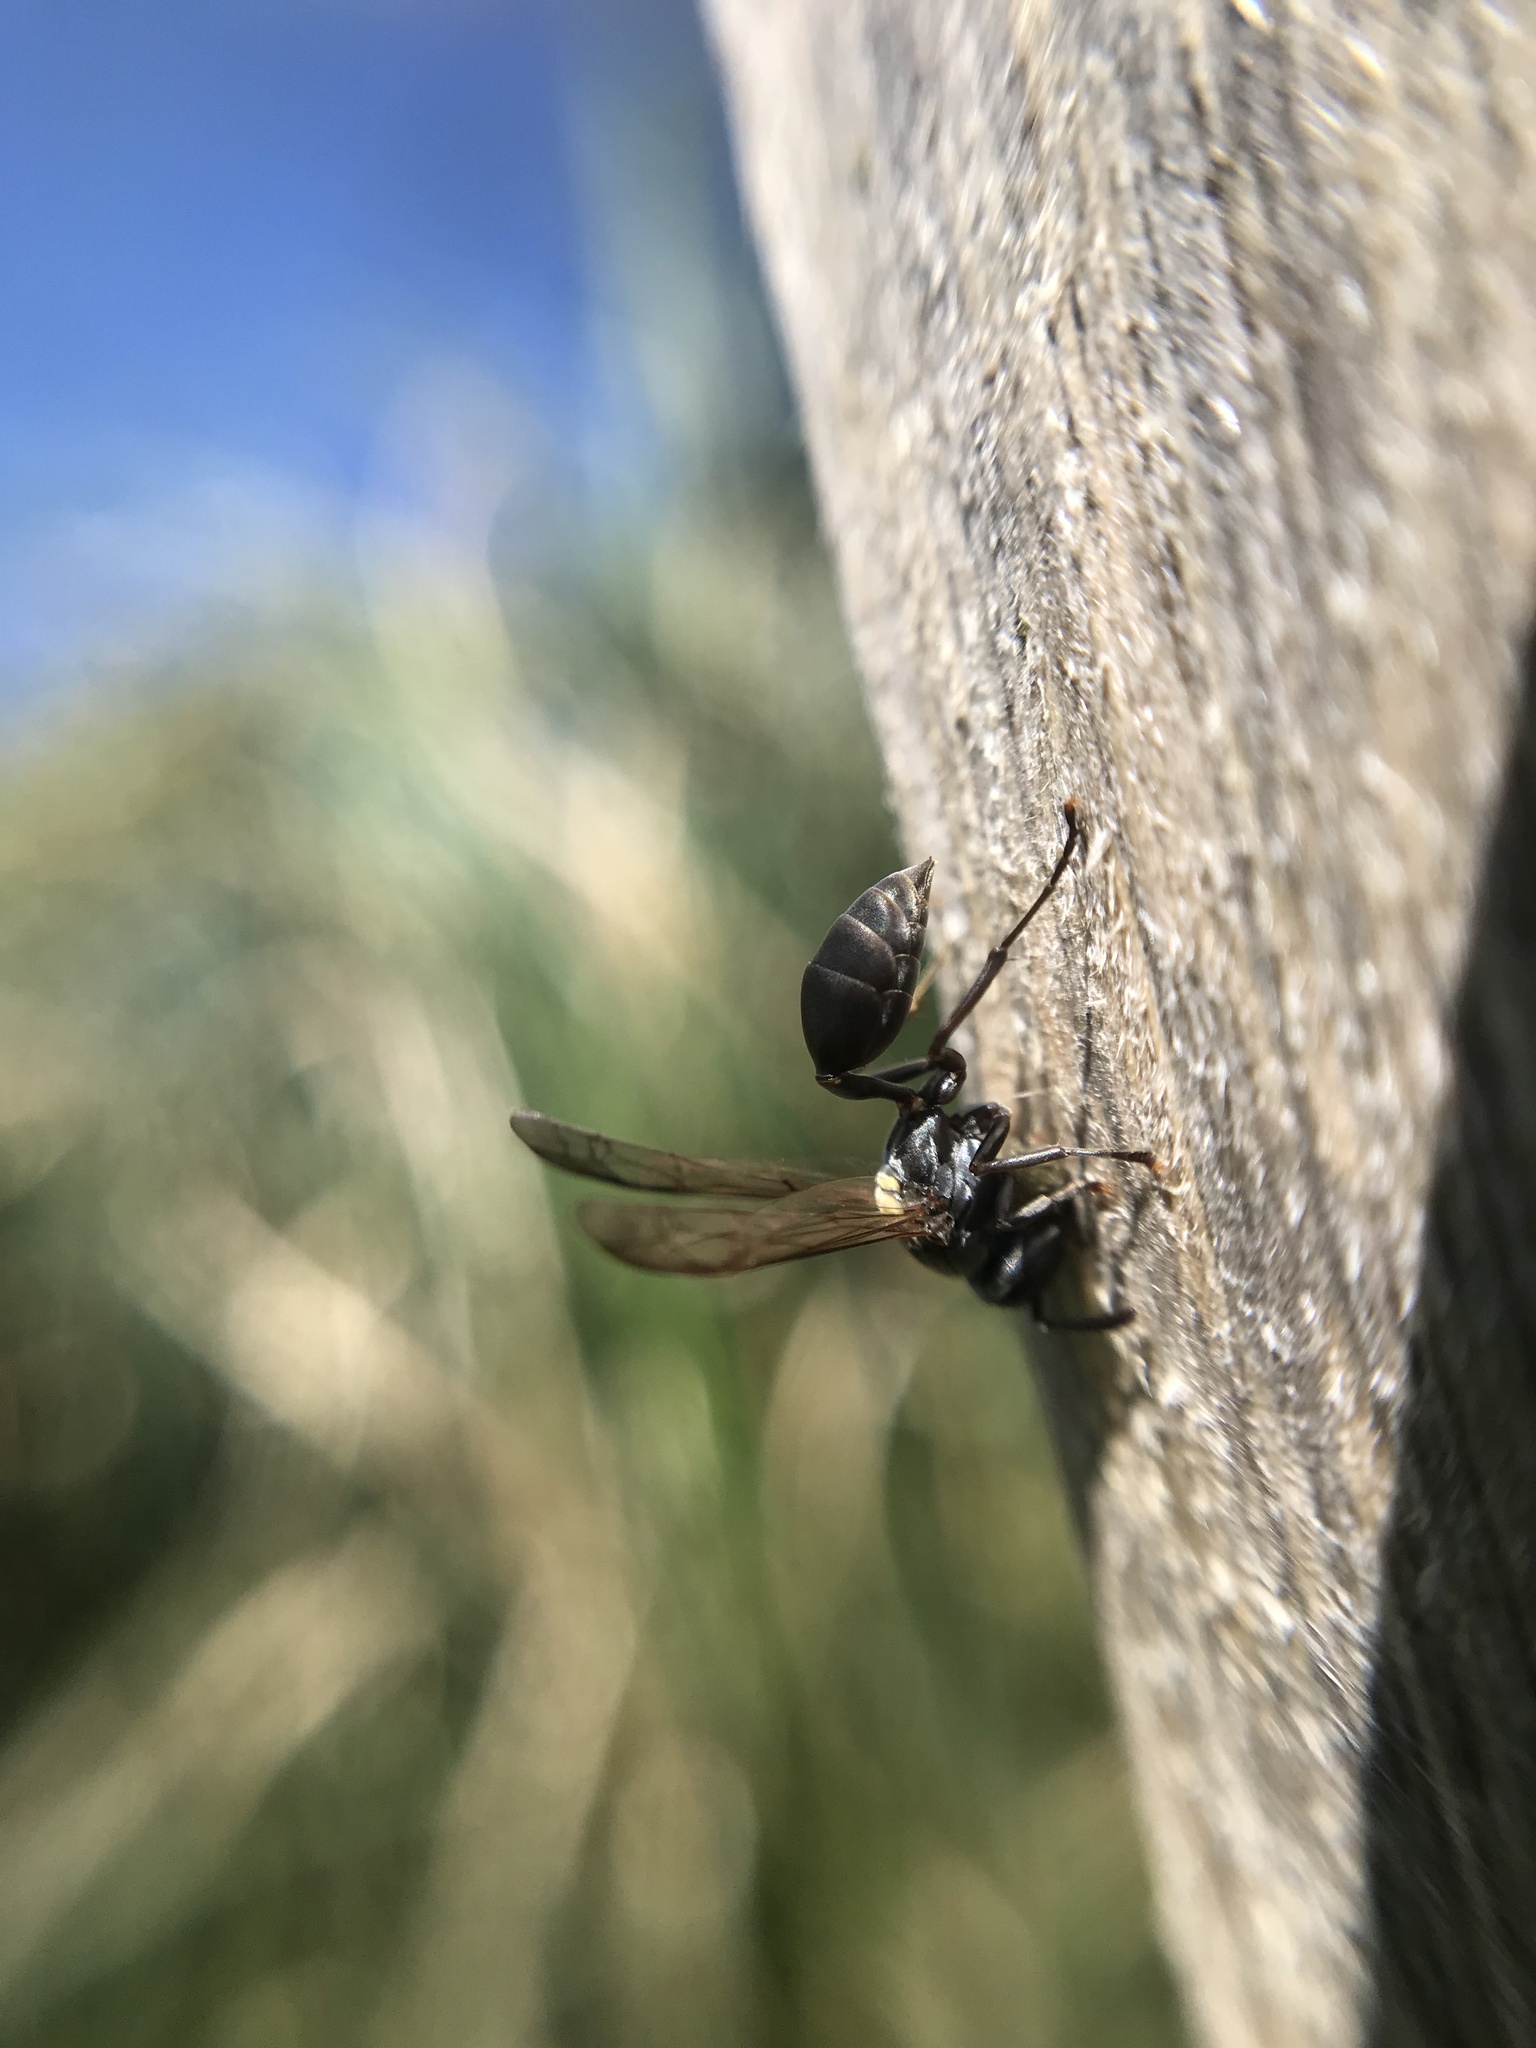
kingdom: Animalia
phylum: Arthropoda
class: Insecta
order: Hymenoptera
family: Eumenidae
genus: Polybia
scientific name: Polybia scutellaris
